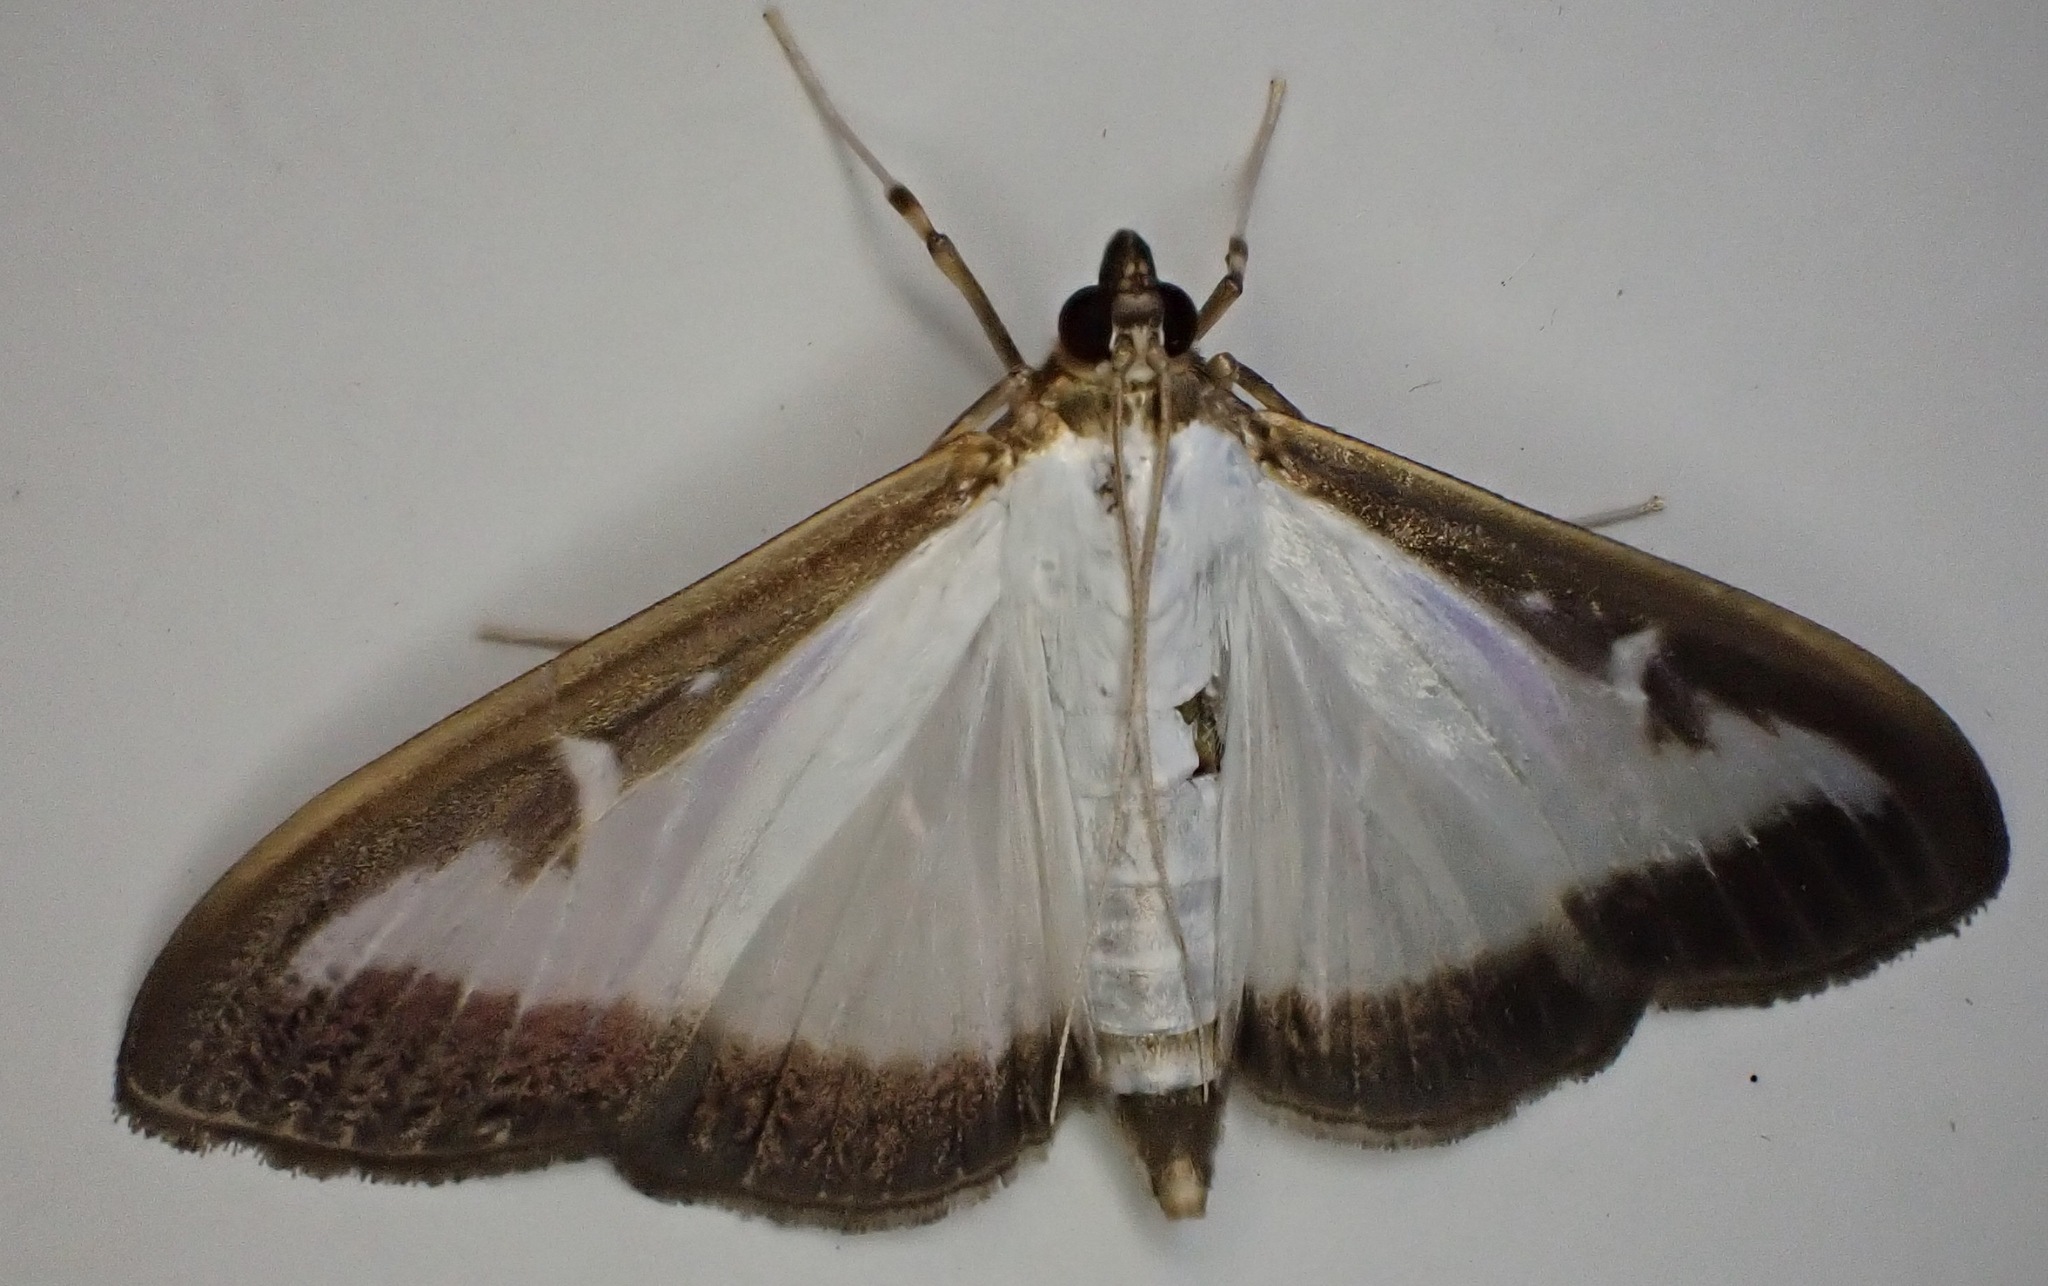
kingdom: Animalia
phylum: Arthropoda
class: Insecta
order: Lepidoptera
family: Crambidae
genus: Cydalima
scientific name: Cydalima perspectalis
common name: Box tree moth
